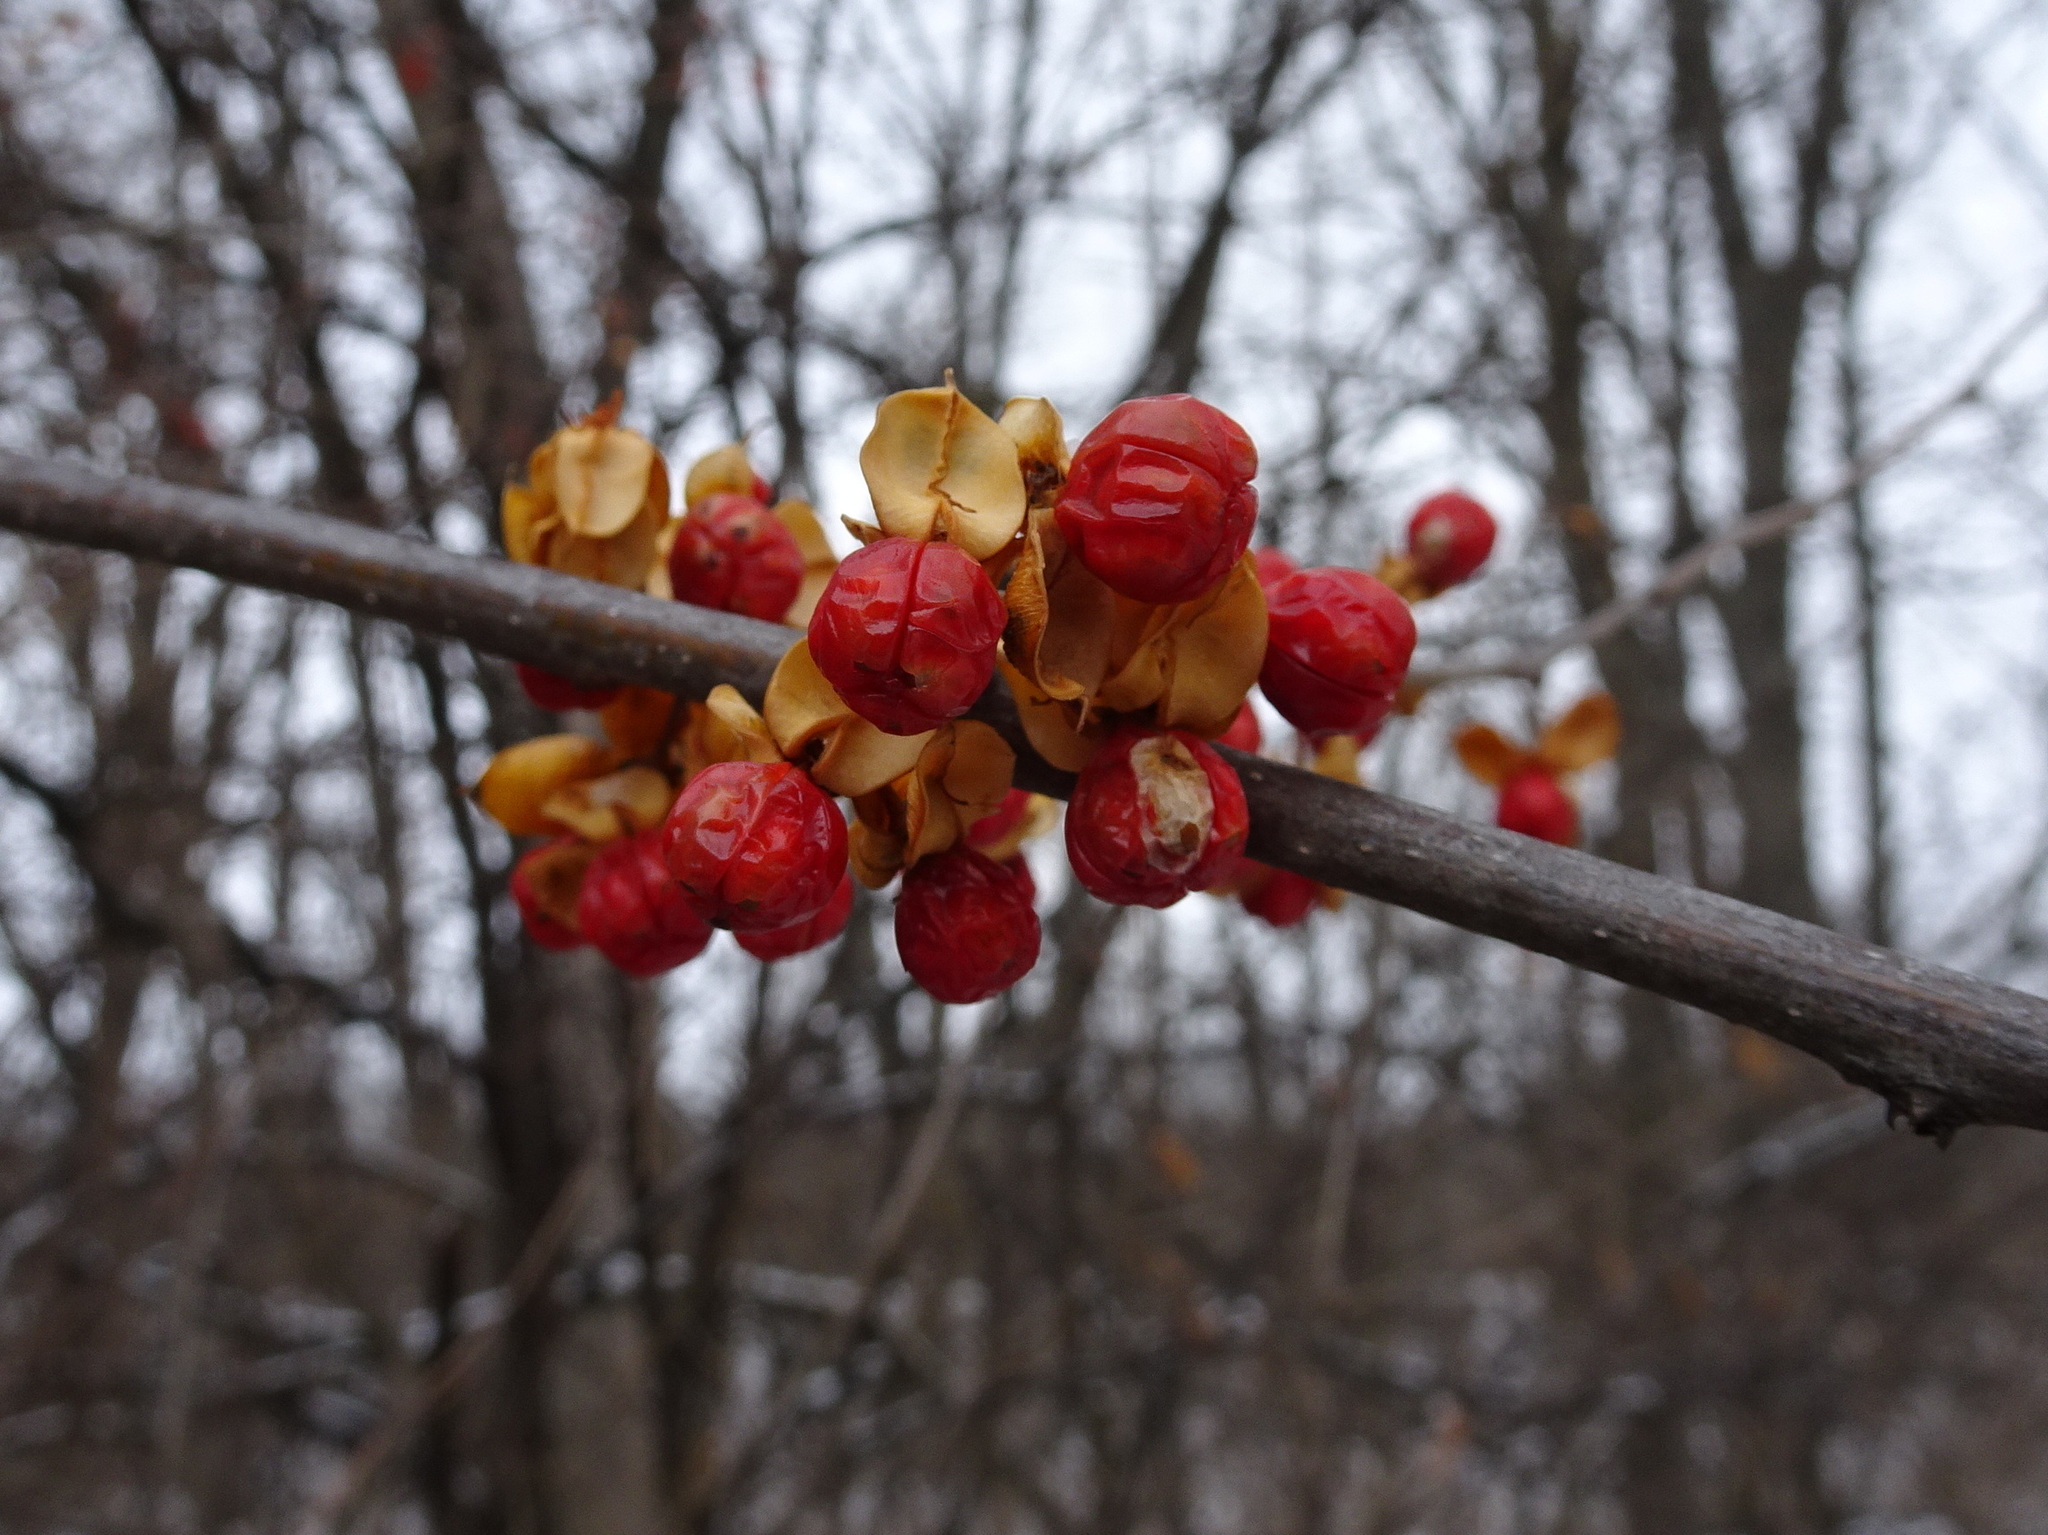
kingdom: Plantae
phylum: Tracheophyta
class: Magnoliopsida
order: Celastrales
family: Celastraceae
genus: Celastrus
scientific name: Celastrus orbiculatus
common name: Oriental bittersweet
